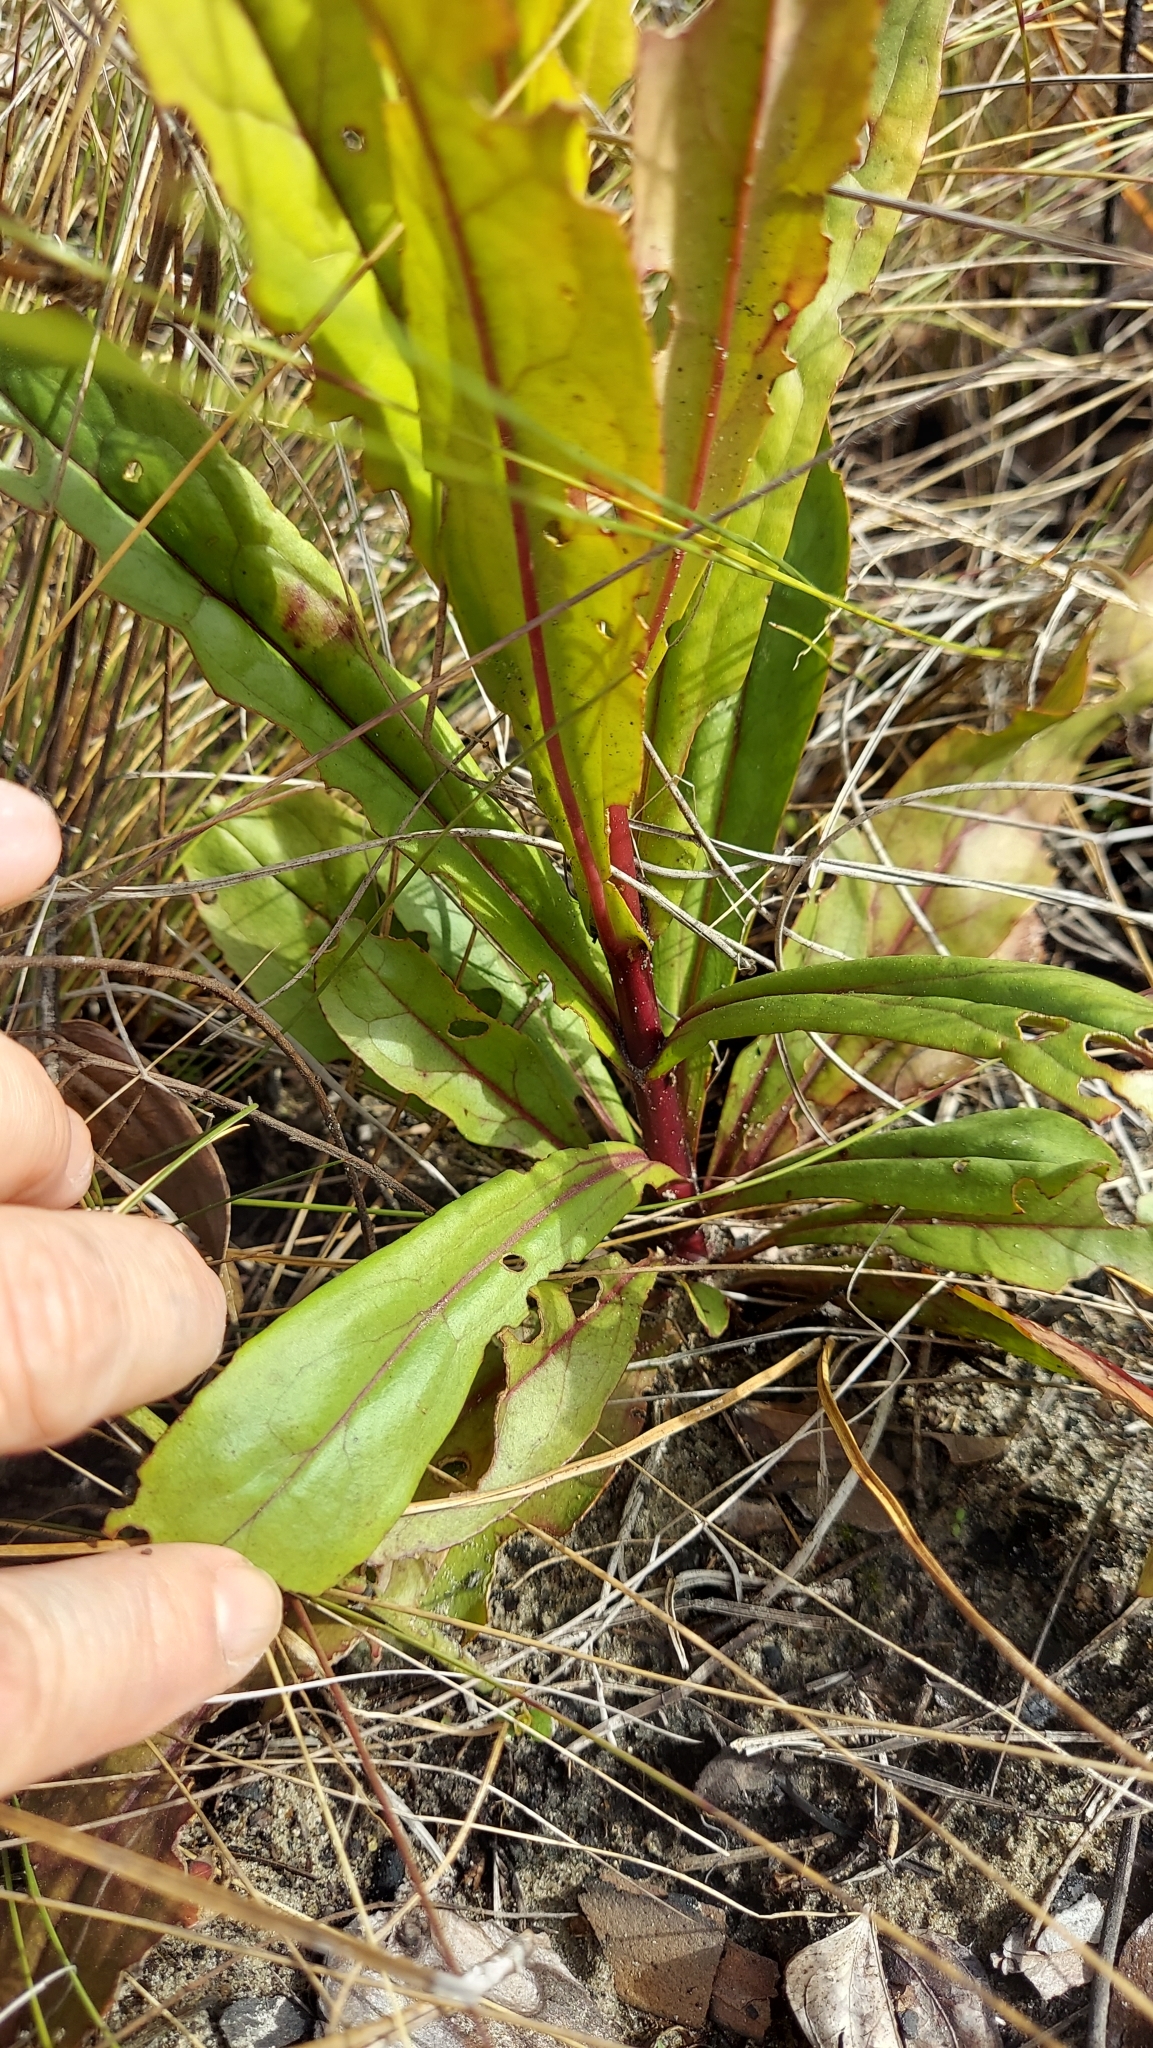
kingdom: Plantae
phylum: Tracheophyta
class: Magnoliopsida
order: Lamiales
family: Plantaginaceae
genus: Penstemon
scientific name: Penstemon multiflorus
